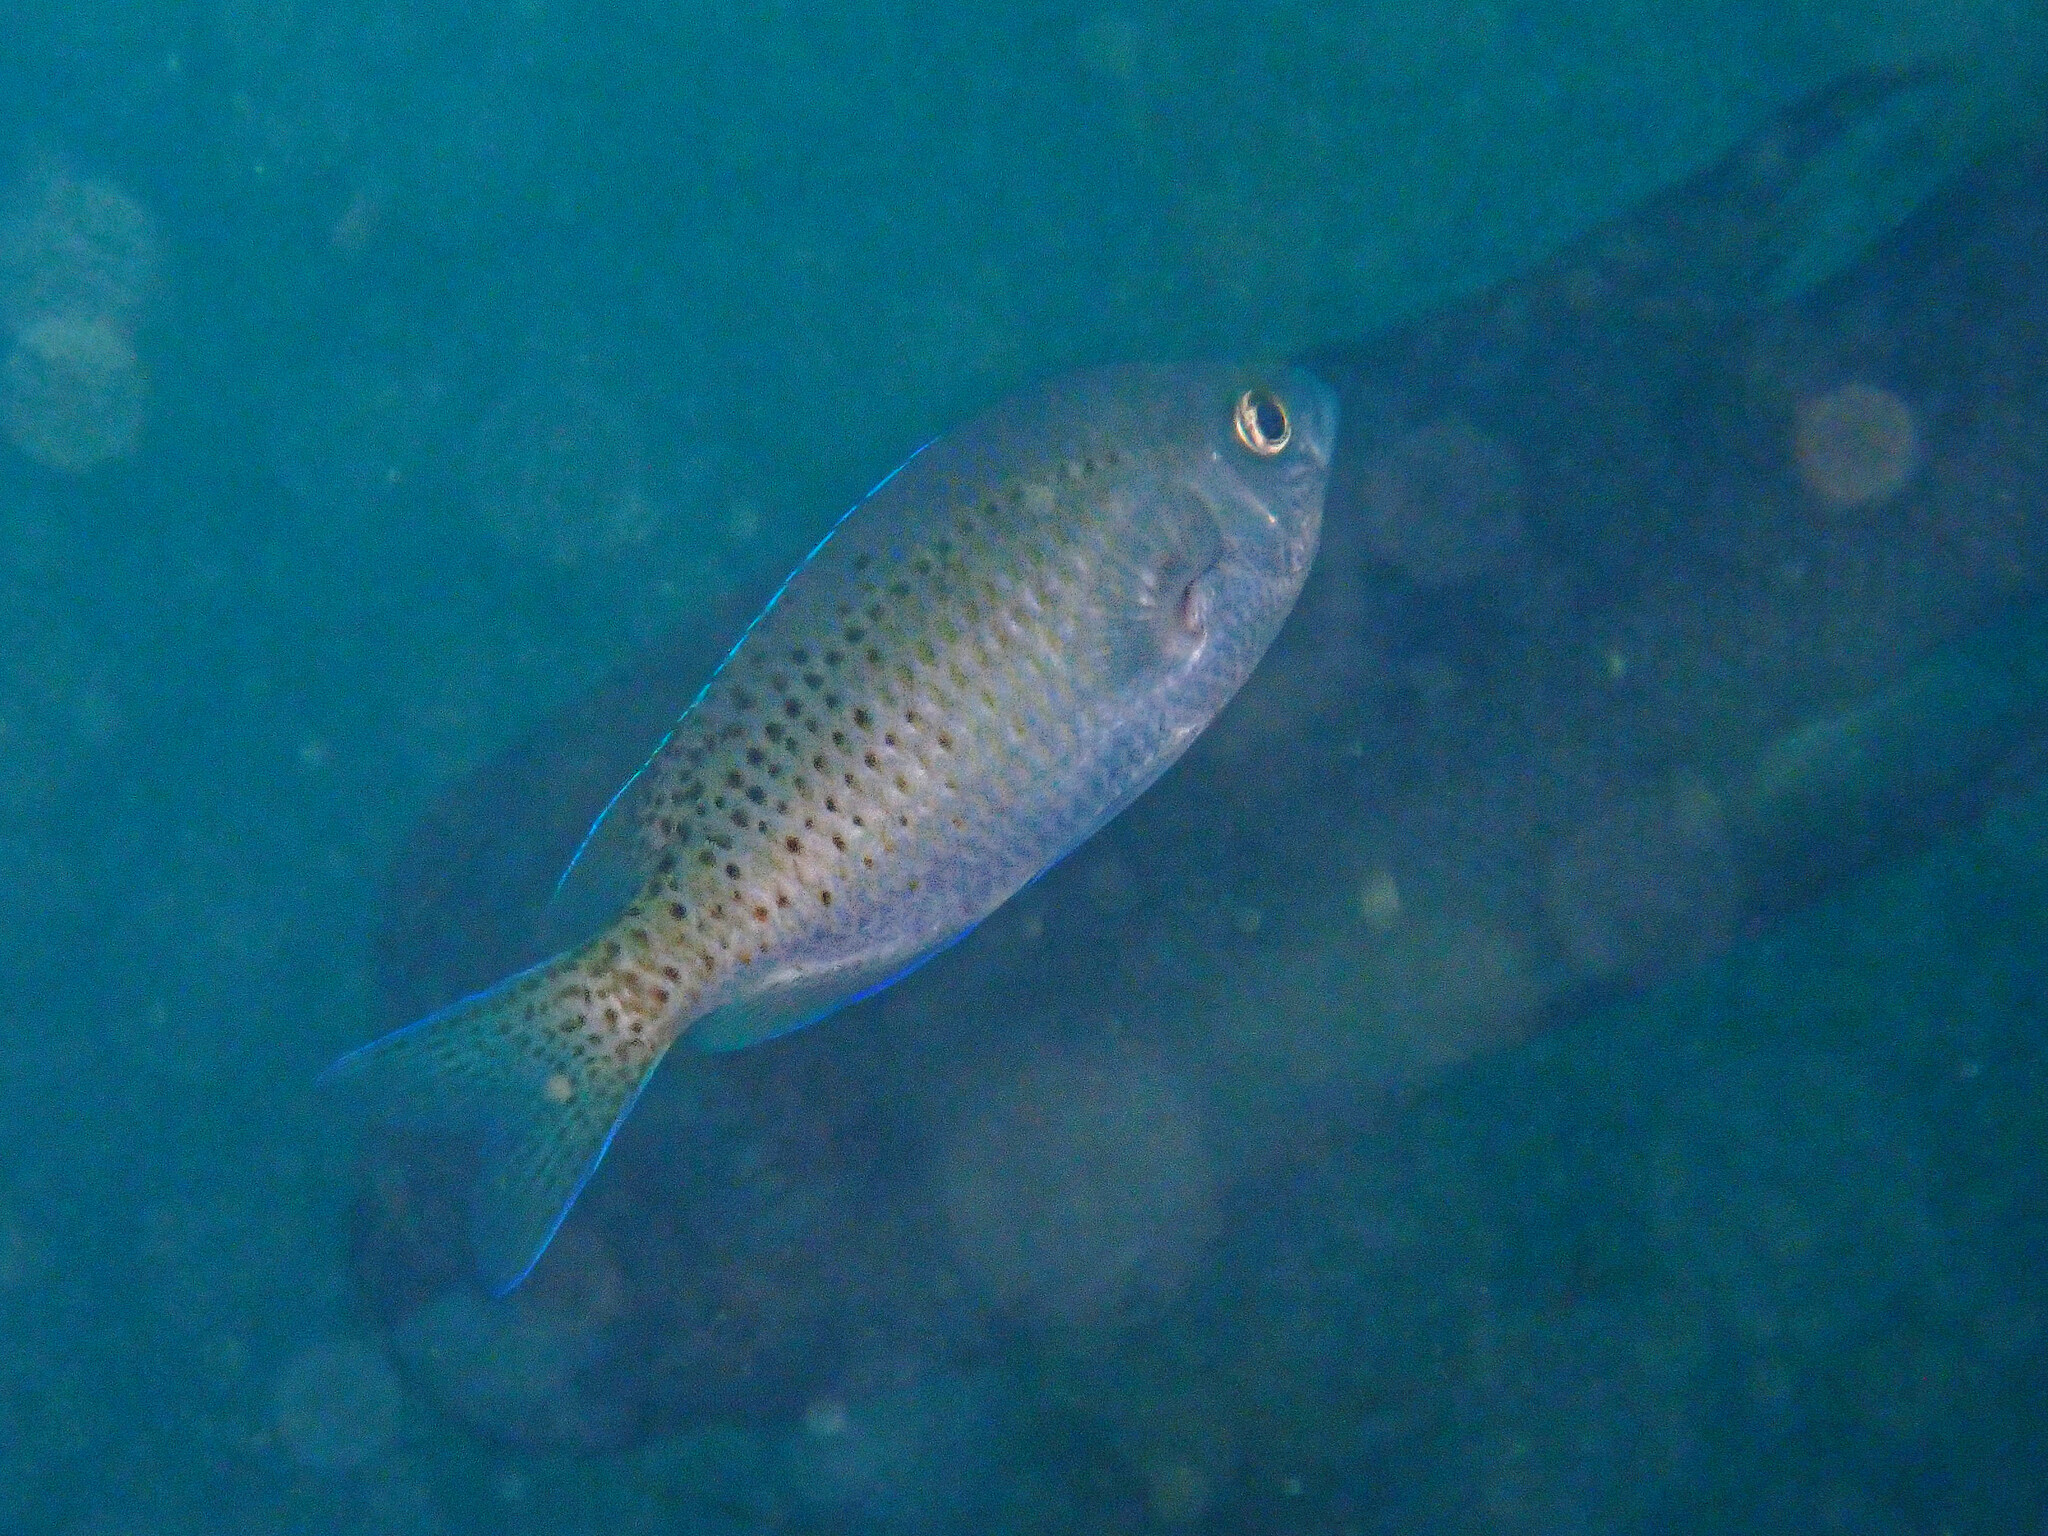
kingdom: Animalia
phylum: Chordata
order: Perciformes
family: Pomacentridae
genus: Chromis
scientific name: Chromis punctipinnis
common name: Blacksmith
